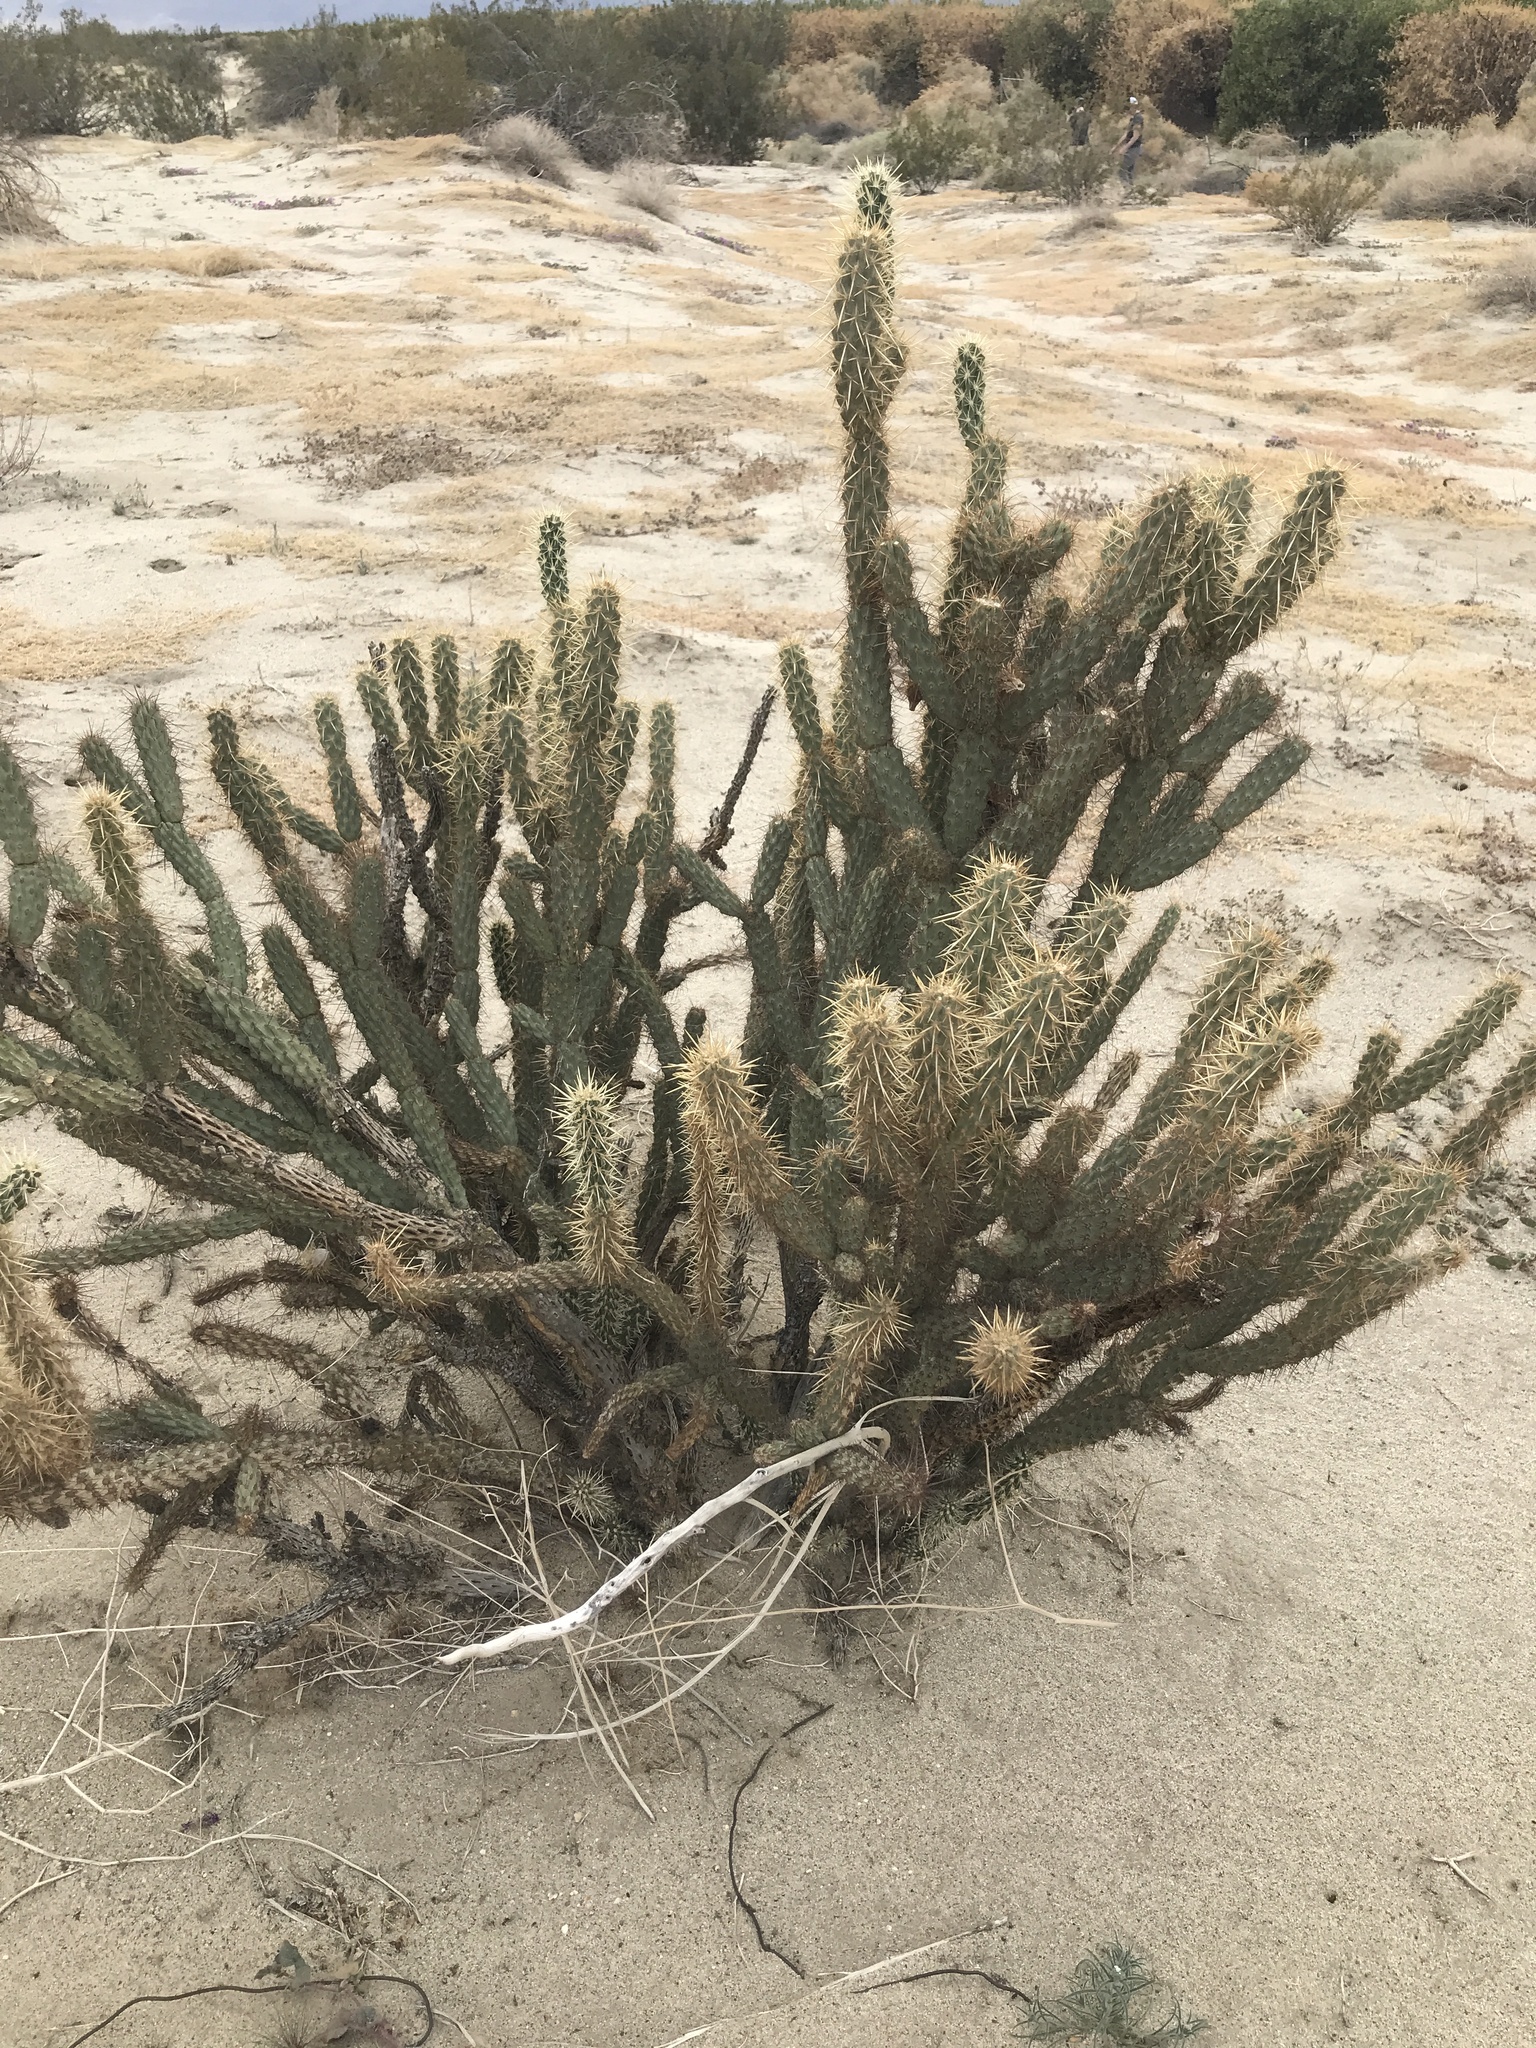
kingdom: Plantae
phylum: Tracheophyta
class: Magnoliopsida
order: Caryophyllales
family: Cactaceae
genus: Cylindropuntia
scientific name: Cylindropuntia ganderi
